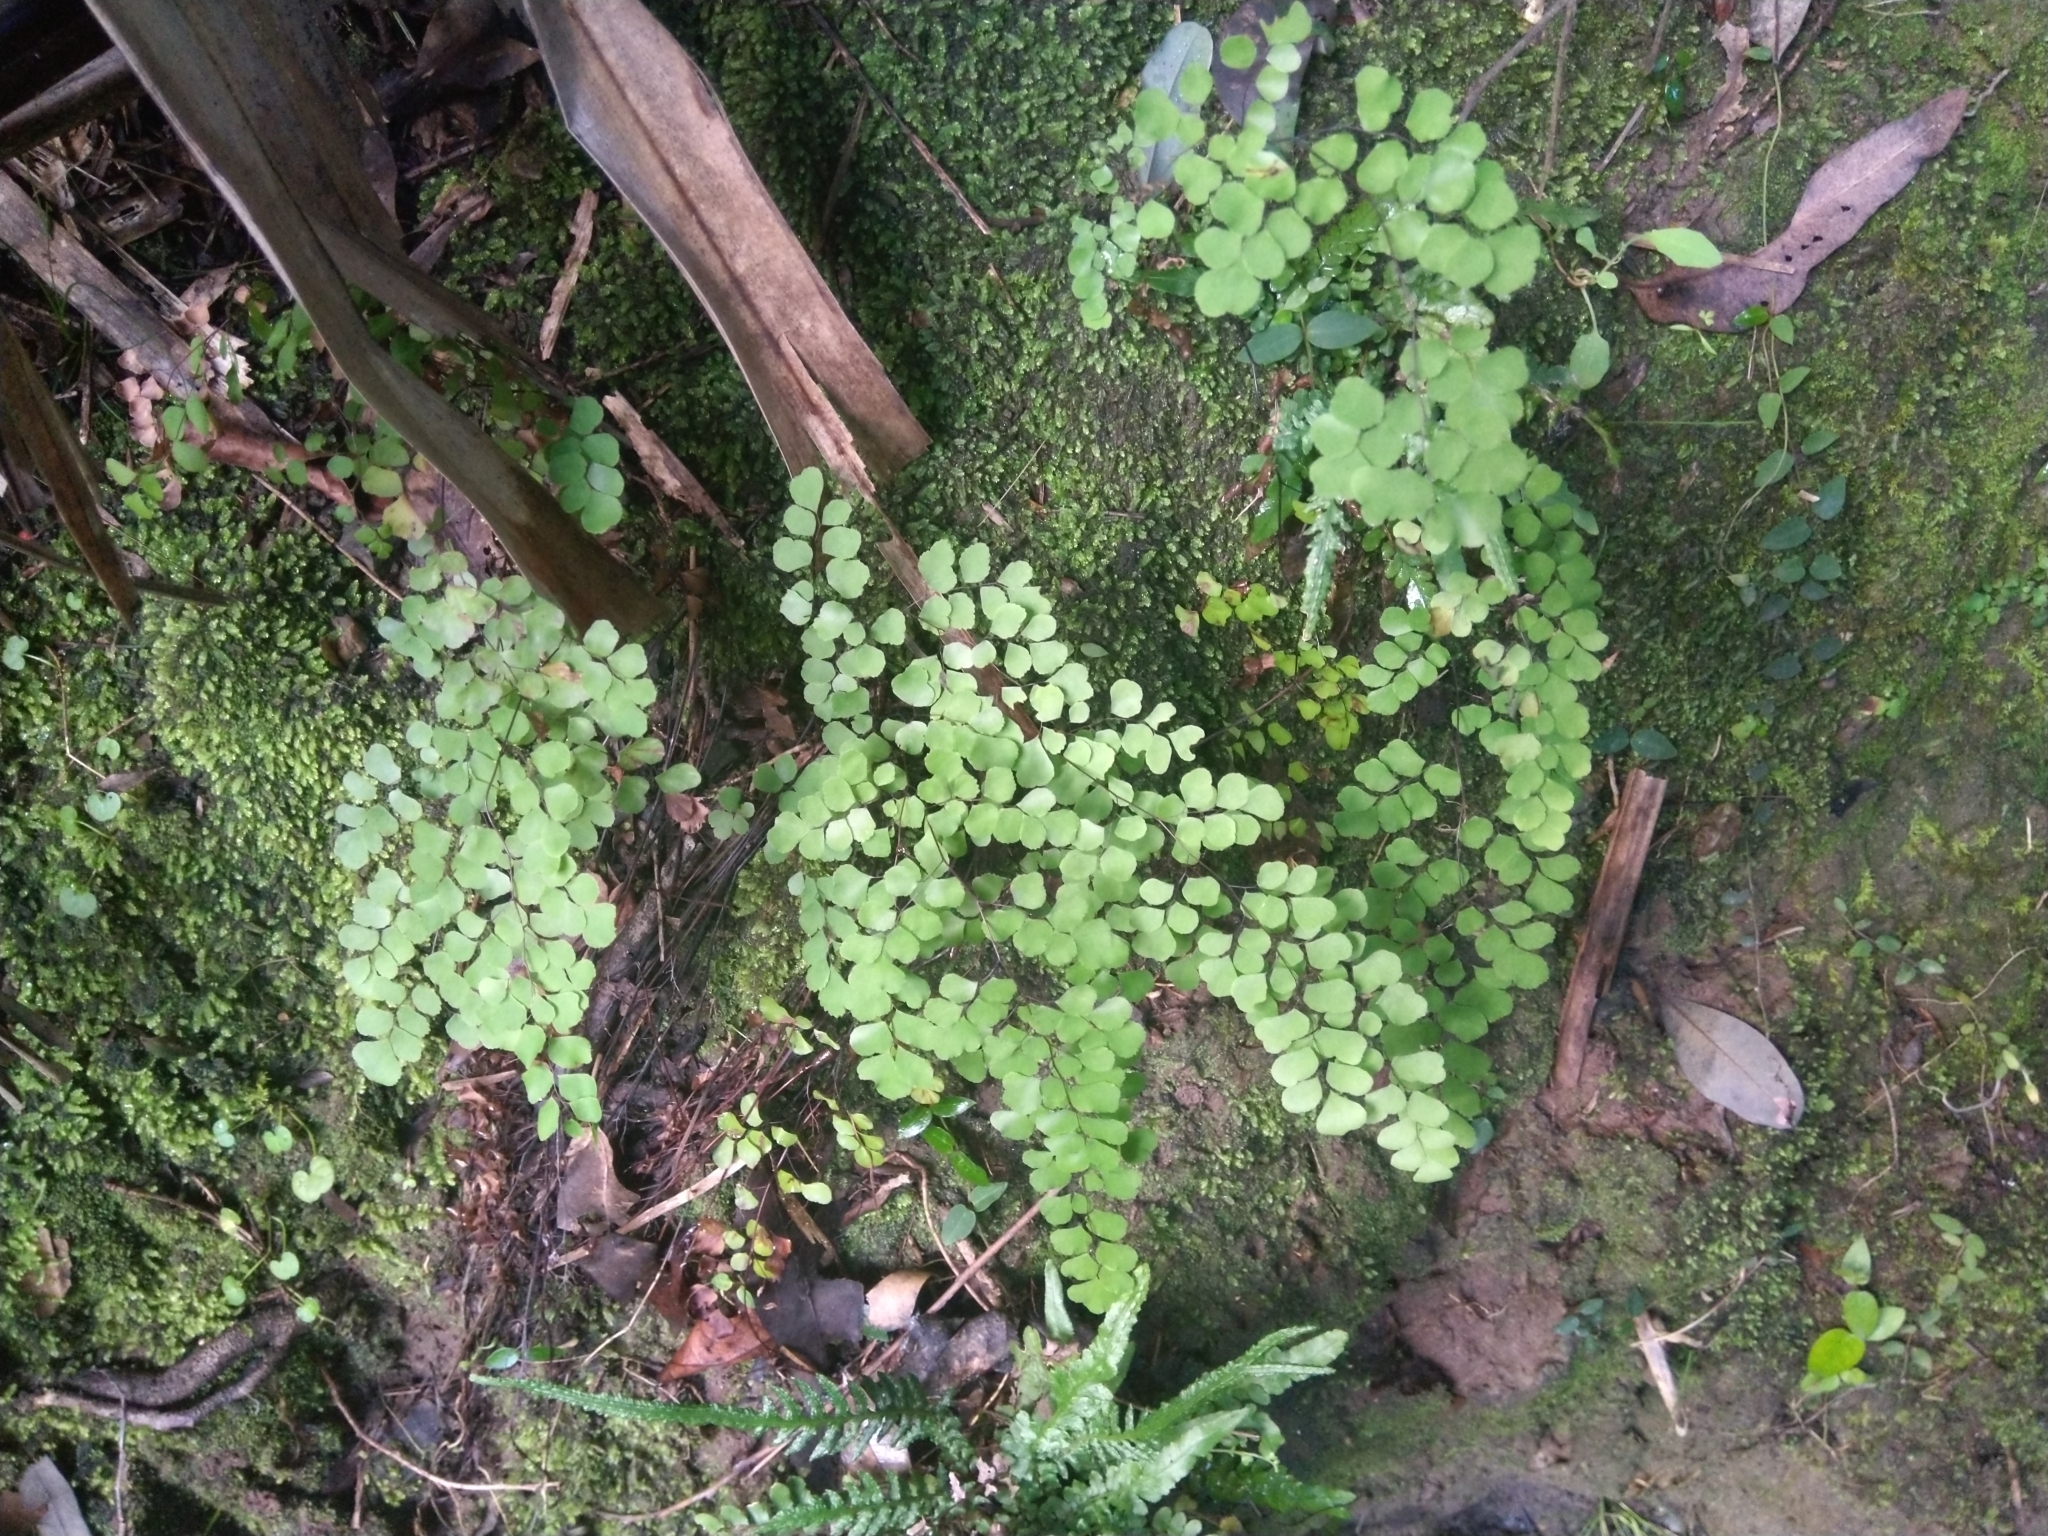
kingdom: Plantae
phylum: Tracheophyta
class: Polypodiopsida
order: Polypodiales
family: Pteridaceae
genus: Adiantum
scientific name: Adiantum aethiopicum
